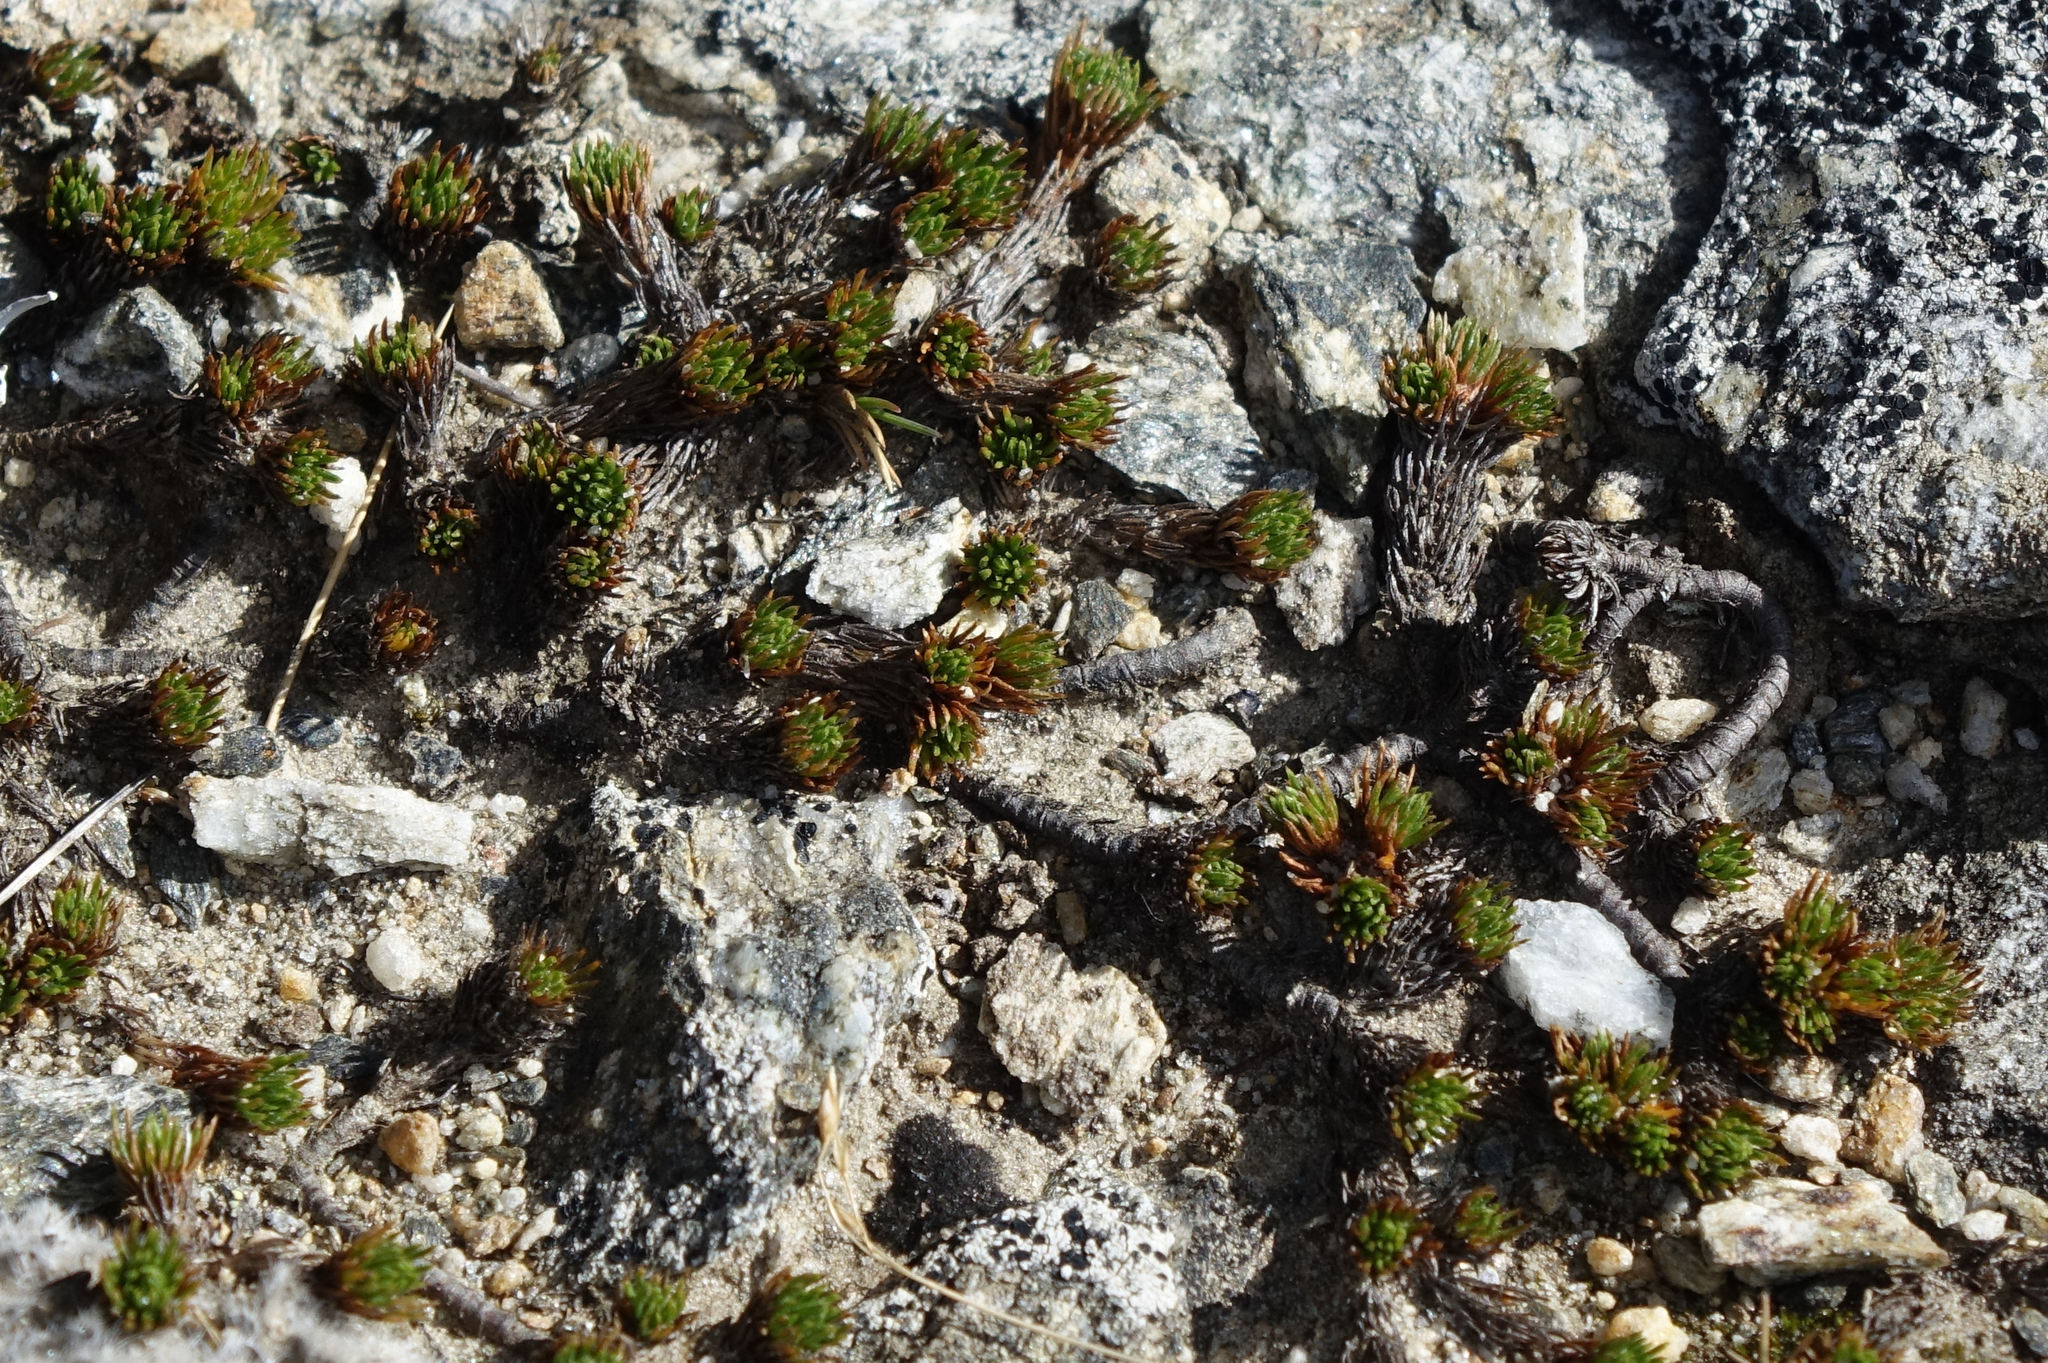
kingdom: Plantae
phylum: Tracheophyta
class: Magnoliopsida
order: Asterales
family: Asteraceae
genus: Leptinella
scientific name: Leptinella goyenii
